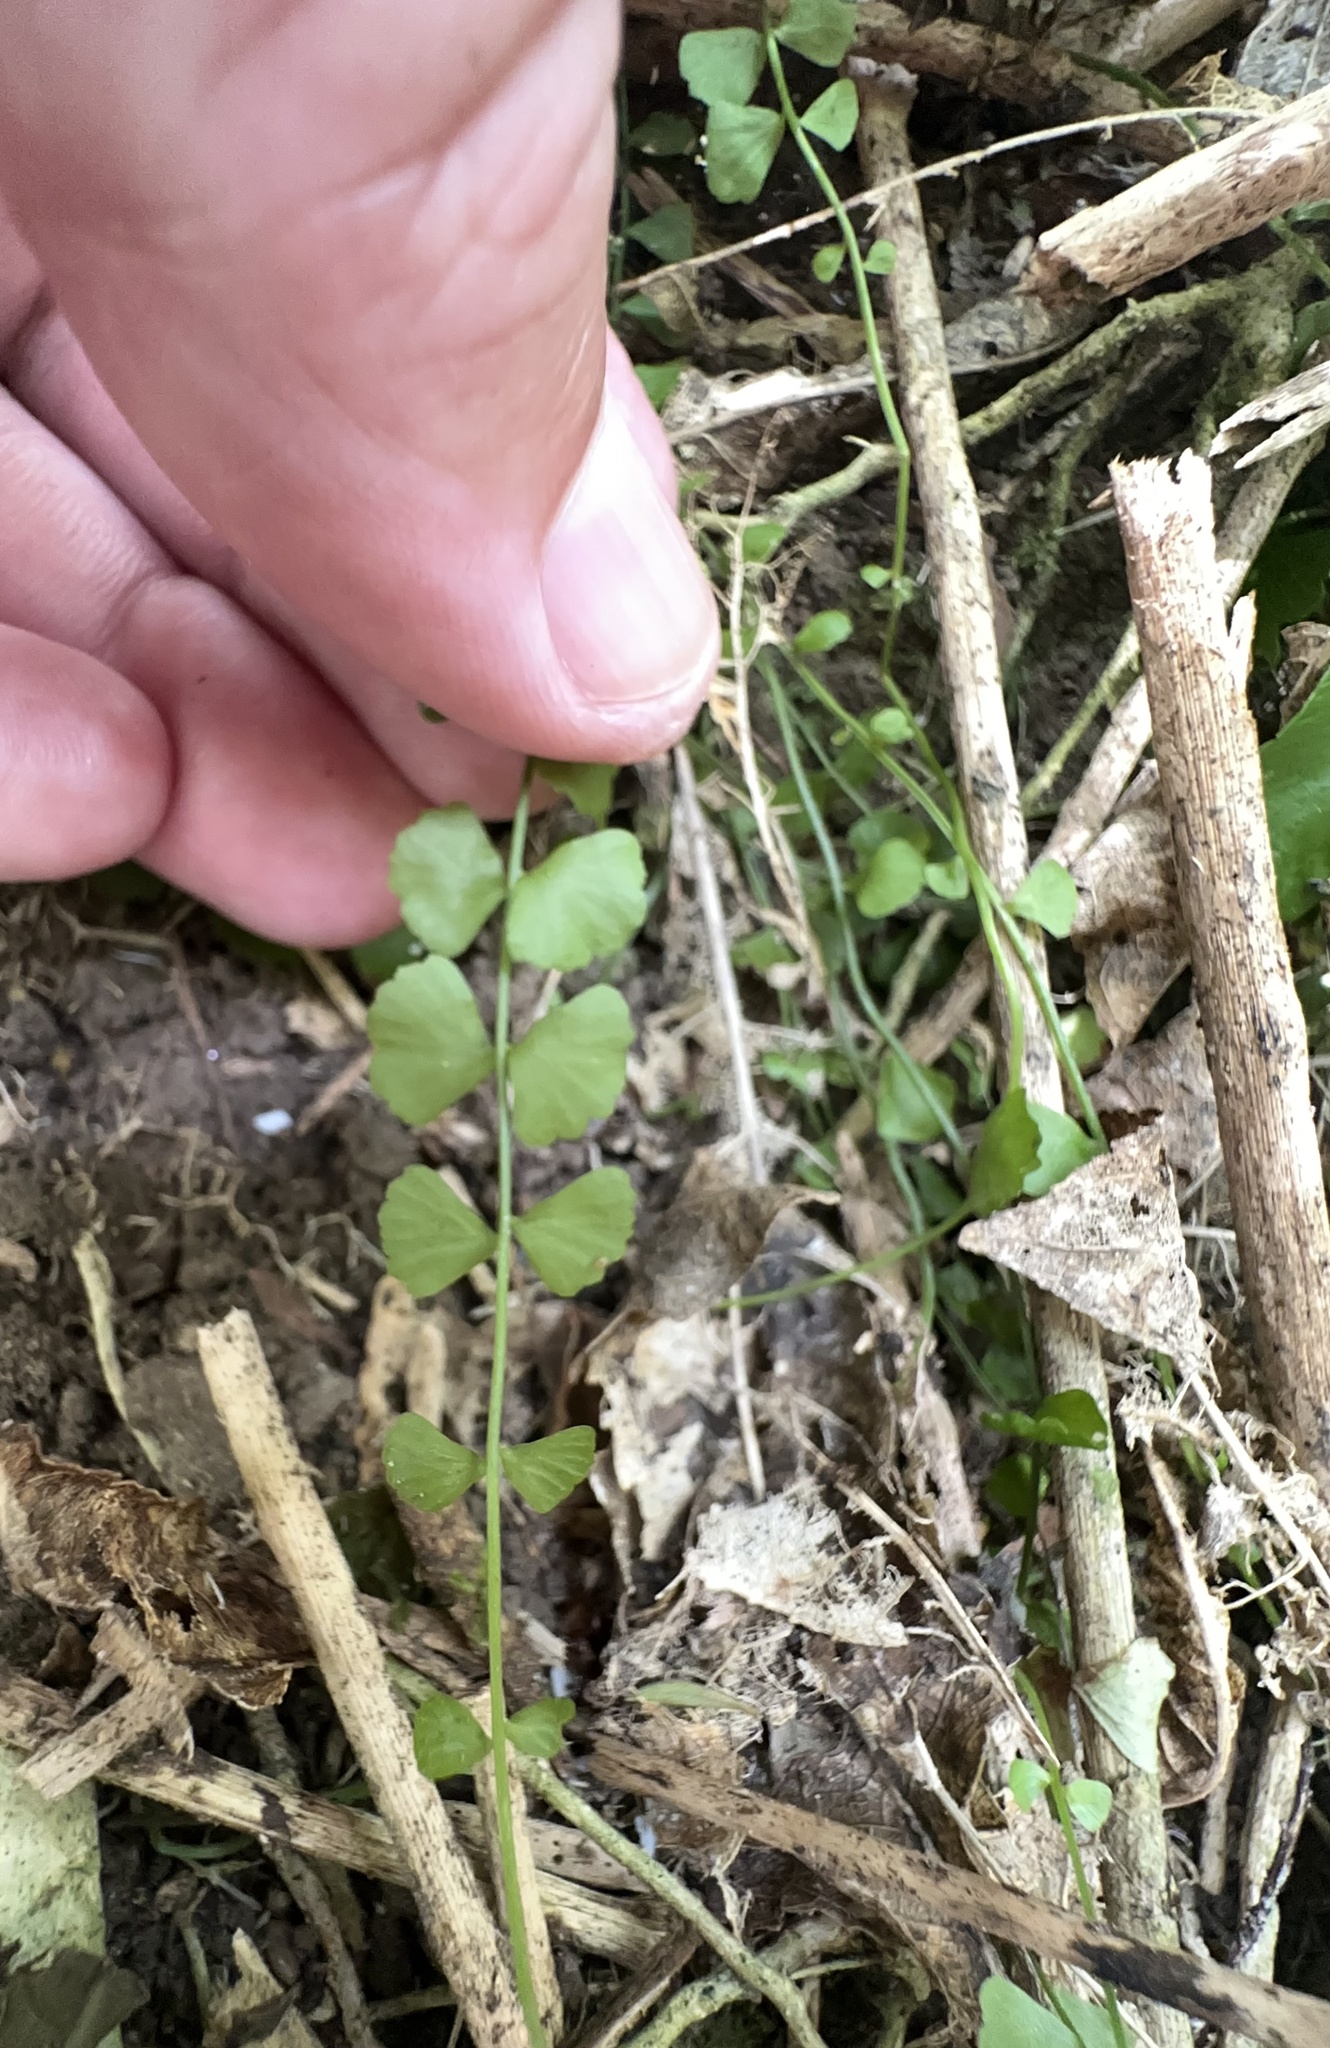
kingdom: Plantae
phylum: Tracheophyta
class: Polypodiopsida
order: Polypodiales
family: Aspleniaceae
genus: Asplenium
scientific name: Asplenium flabellifolium
